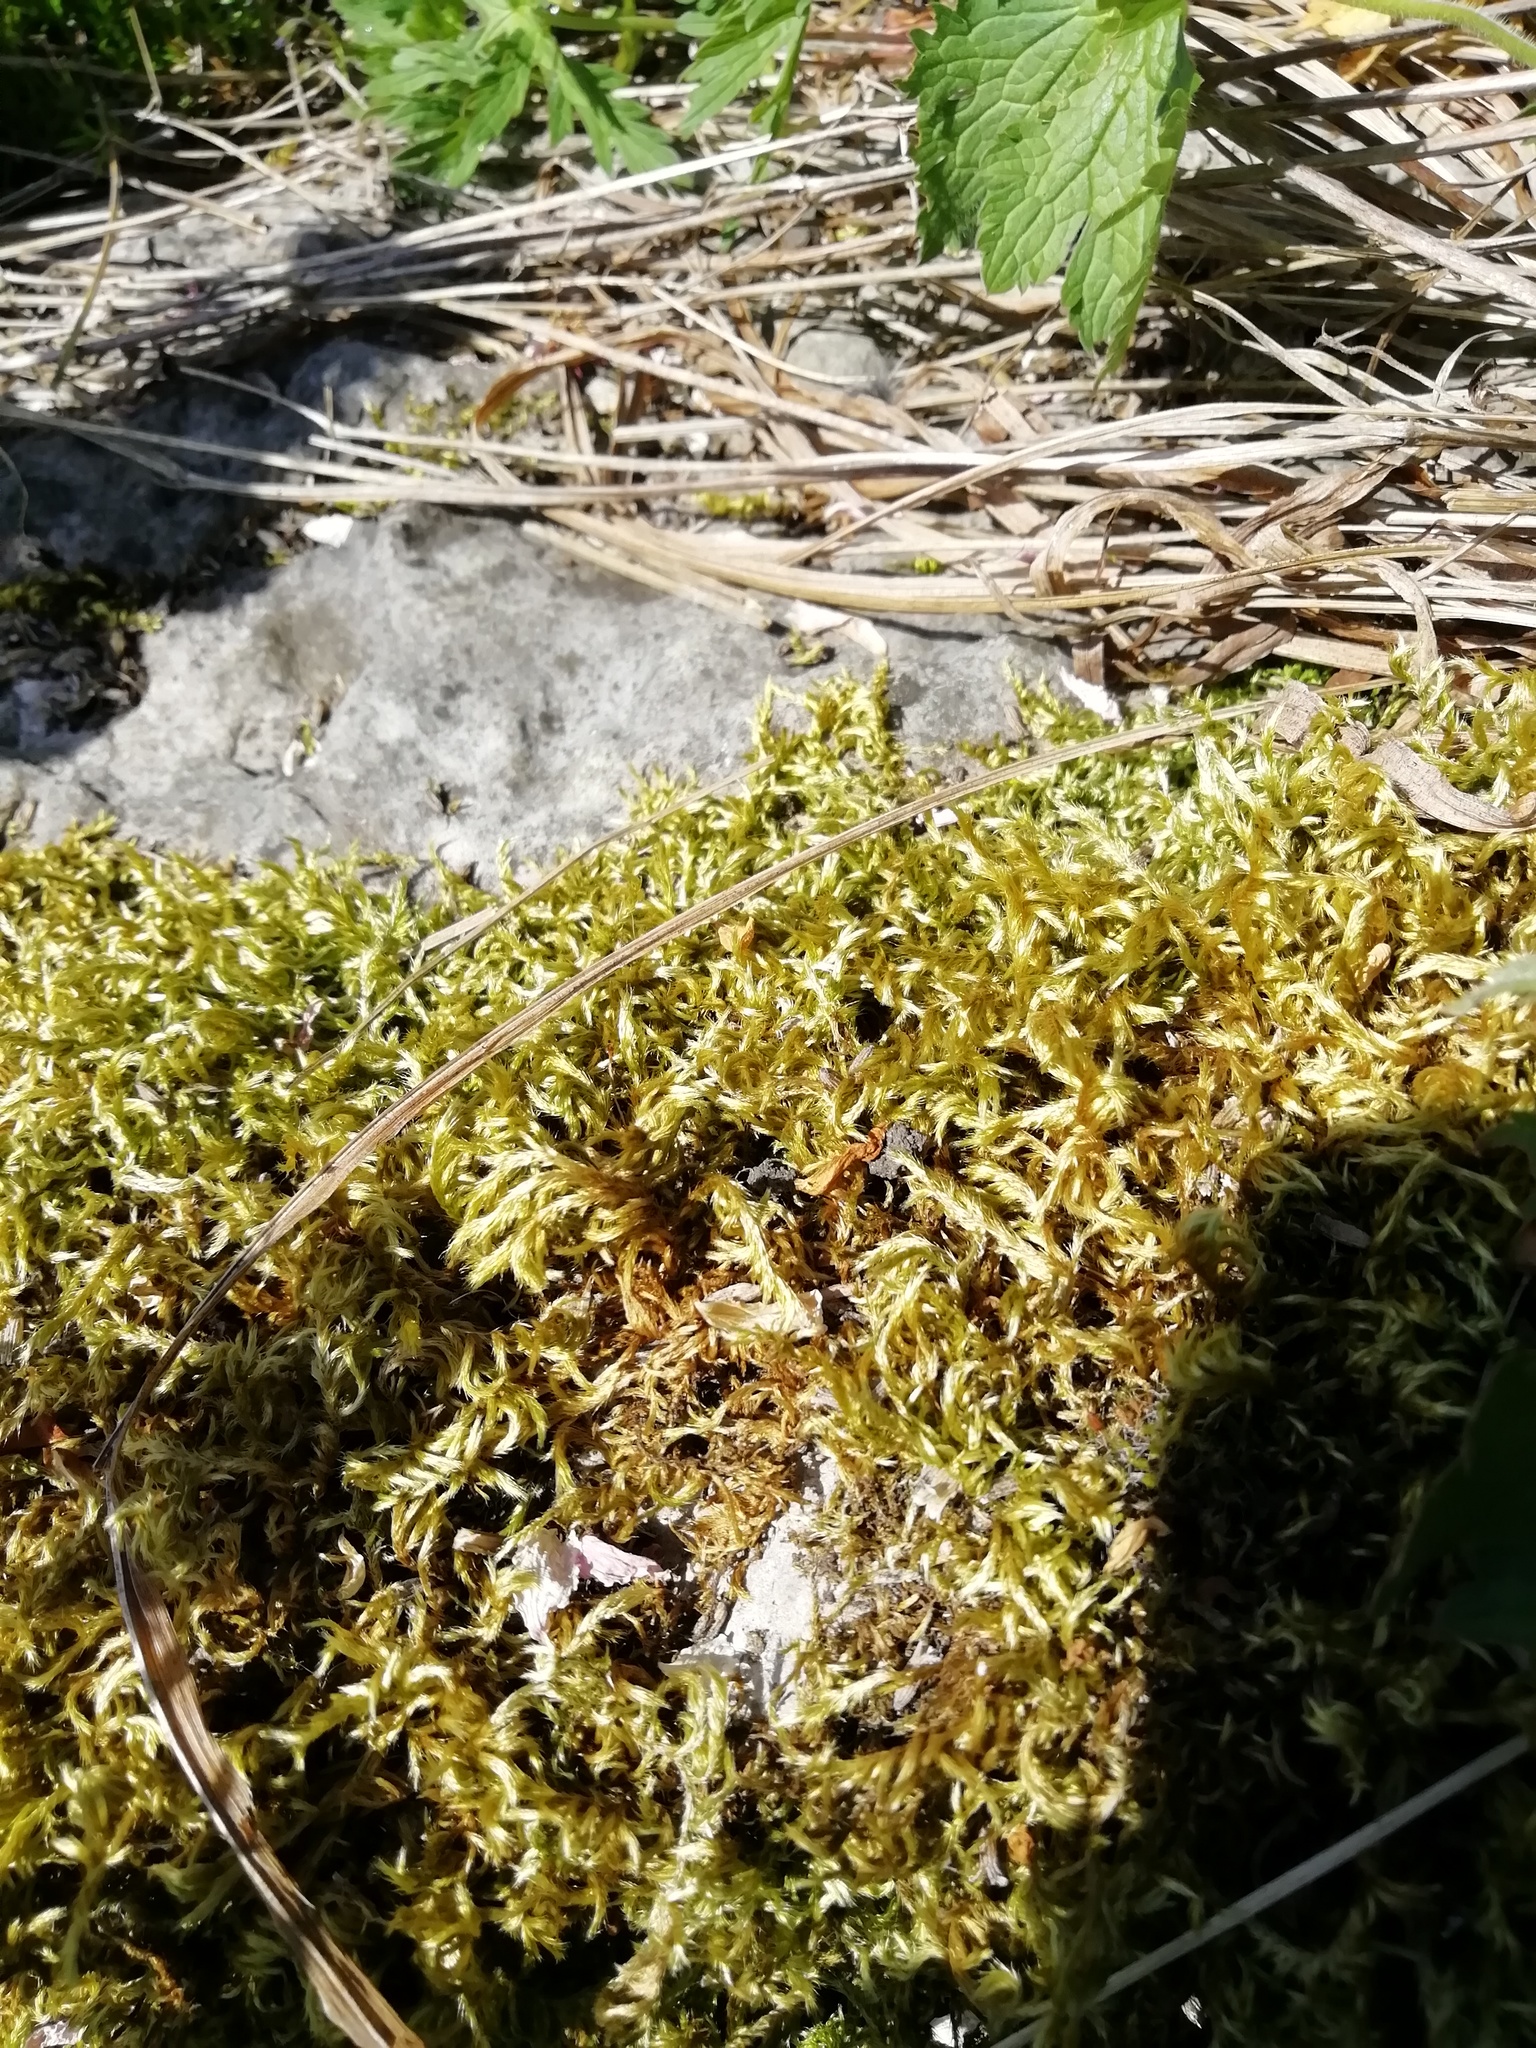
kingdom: Plantae
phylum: Bryophyta
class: Bryopsida
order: Hypnales
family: Brachytheciaceae
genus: Homalothecium
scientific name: Homalothecium sericeum
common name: Silky wall feather-moss
